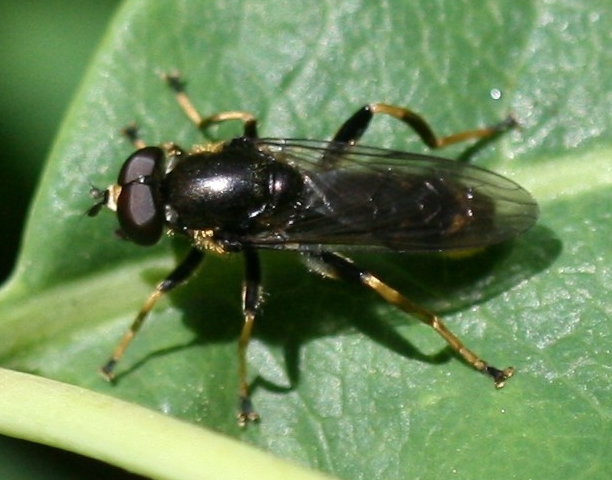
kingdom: Animalia
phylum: Arthropoda
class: Insecta
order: Diptera
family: Syrphidae
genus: Xylota
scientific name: Xylota sylvarum
